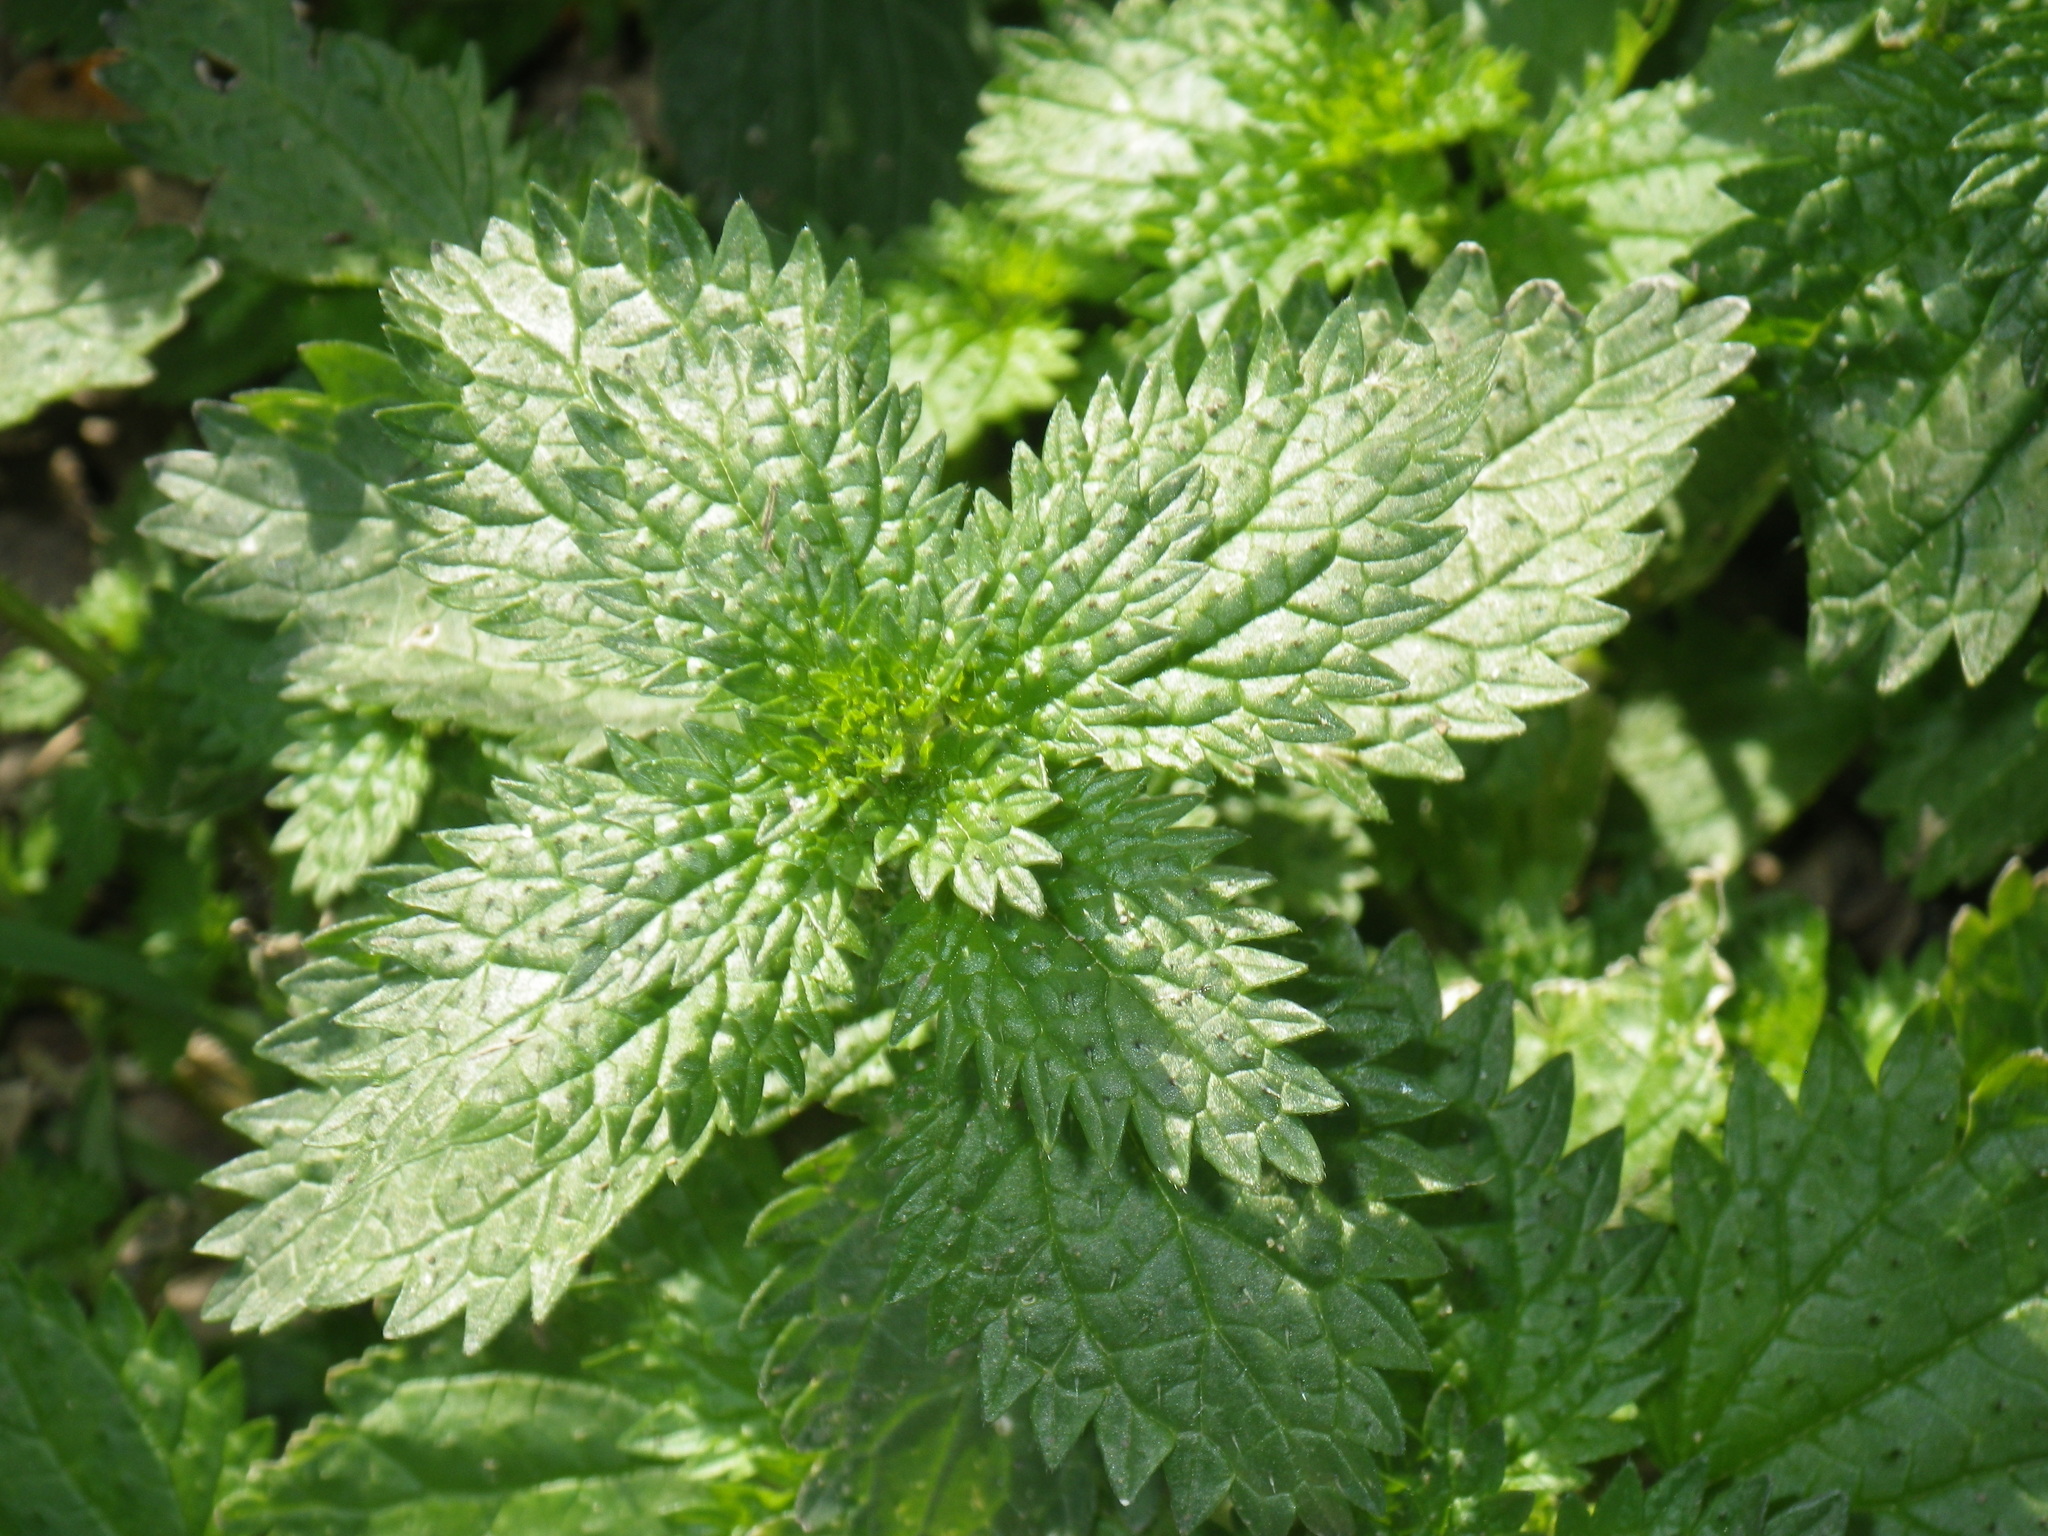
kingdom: Plantae
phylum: Tracheophyta
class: Magnoliopsida
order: Rosales
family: Urticaceae
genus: Urtica
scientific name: Urtica urens
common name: Dwarf nettle
